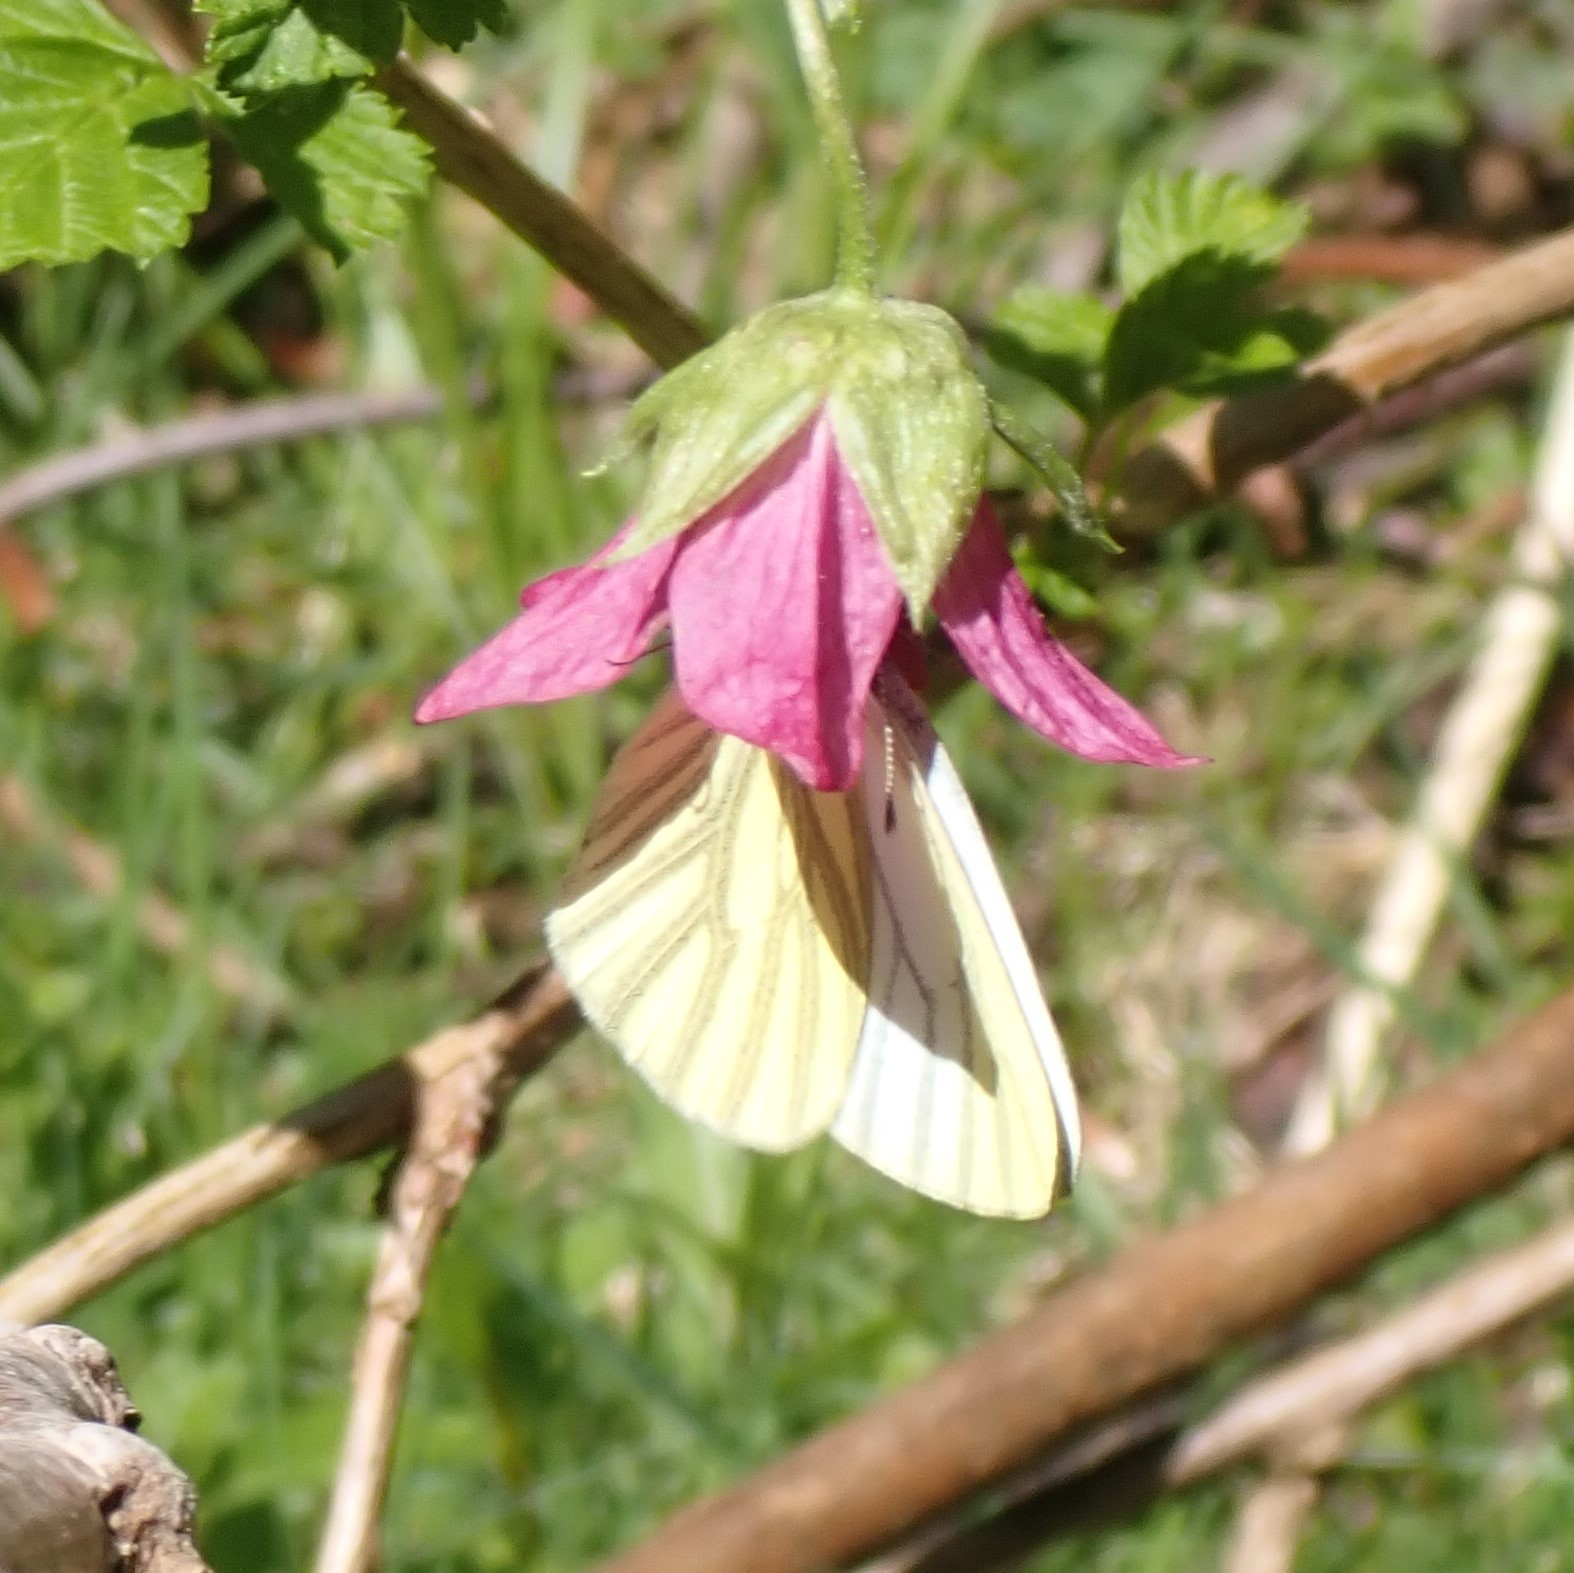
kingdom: Animalia
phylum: Arthropoda
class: Insecta
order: Lepidoptera
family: Pieridae
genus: Pieris
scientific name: Pieris marginalis
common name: Margined white
